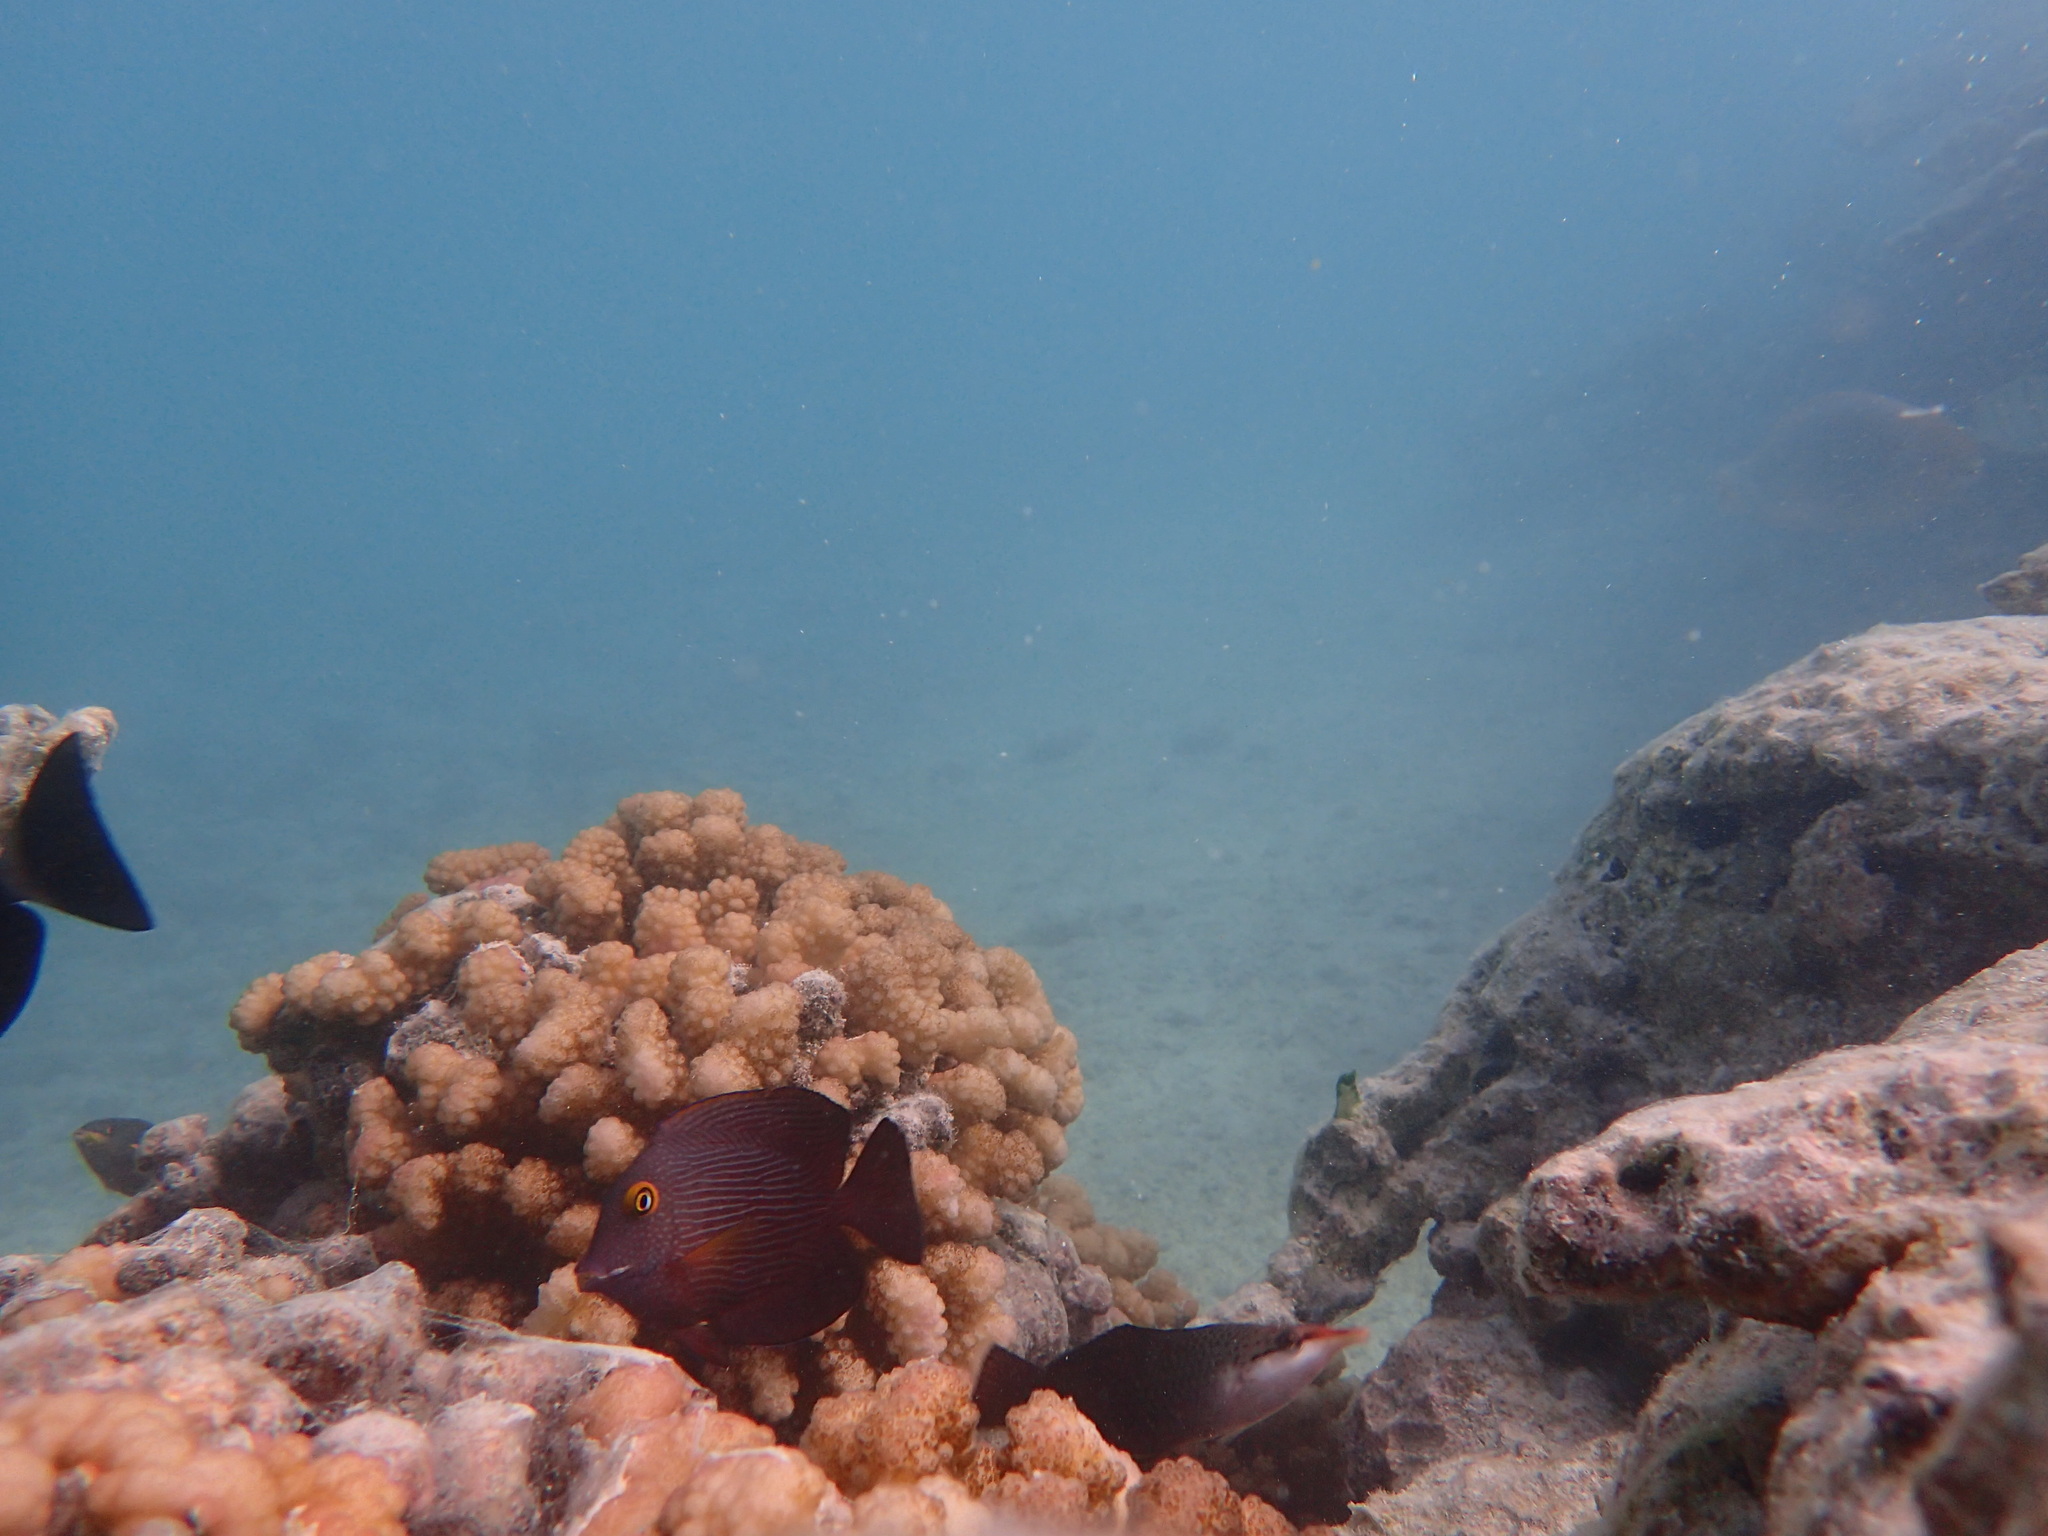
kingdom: Animalia
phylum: Chordata
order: Perciformes
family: Acanthuridae
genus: Ctenochaetus
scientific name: Ctenochaetus strigosus
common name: Bristletoothed surgeonfish
